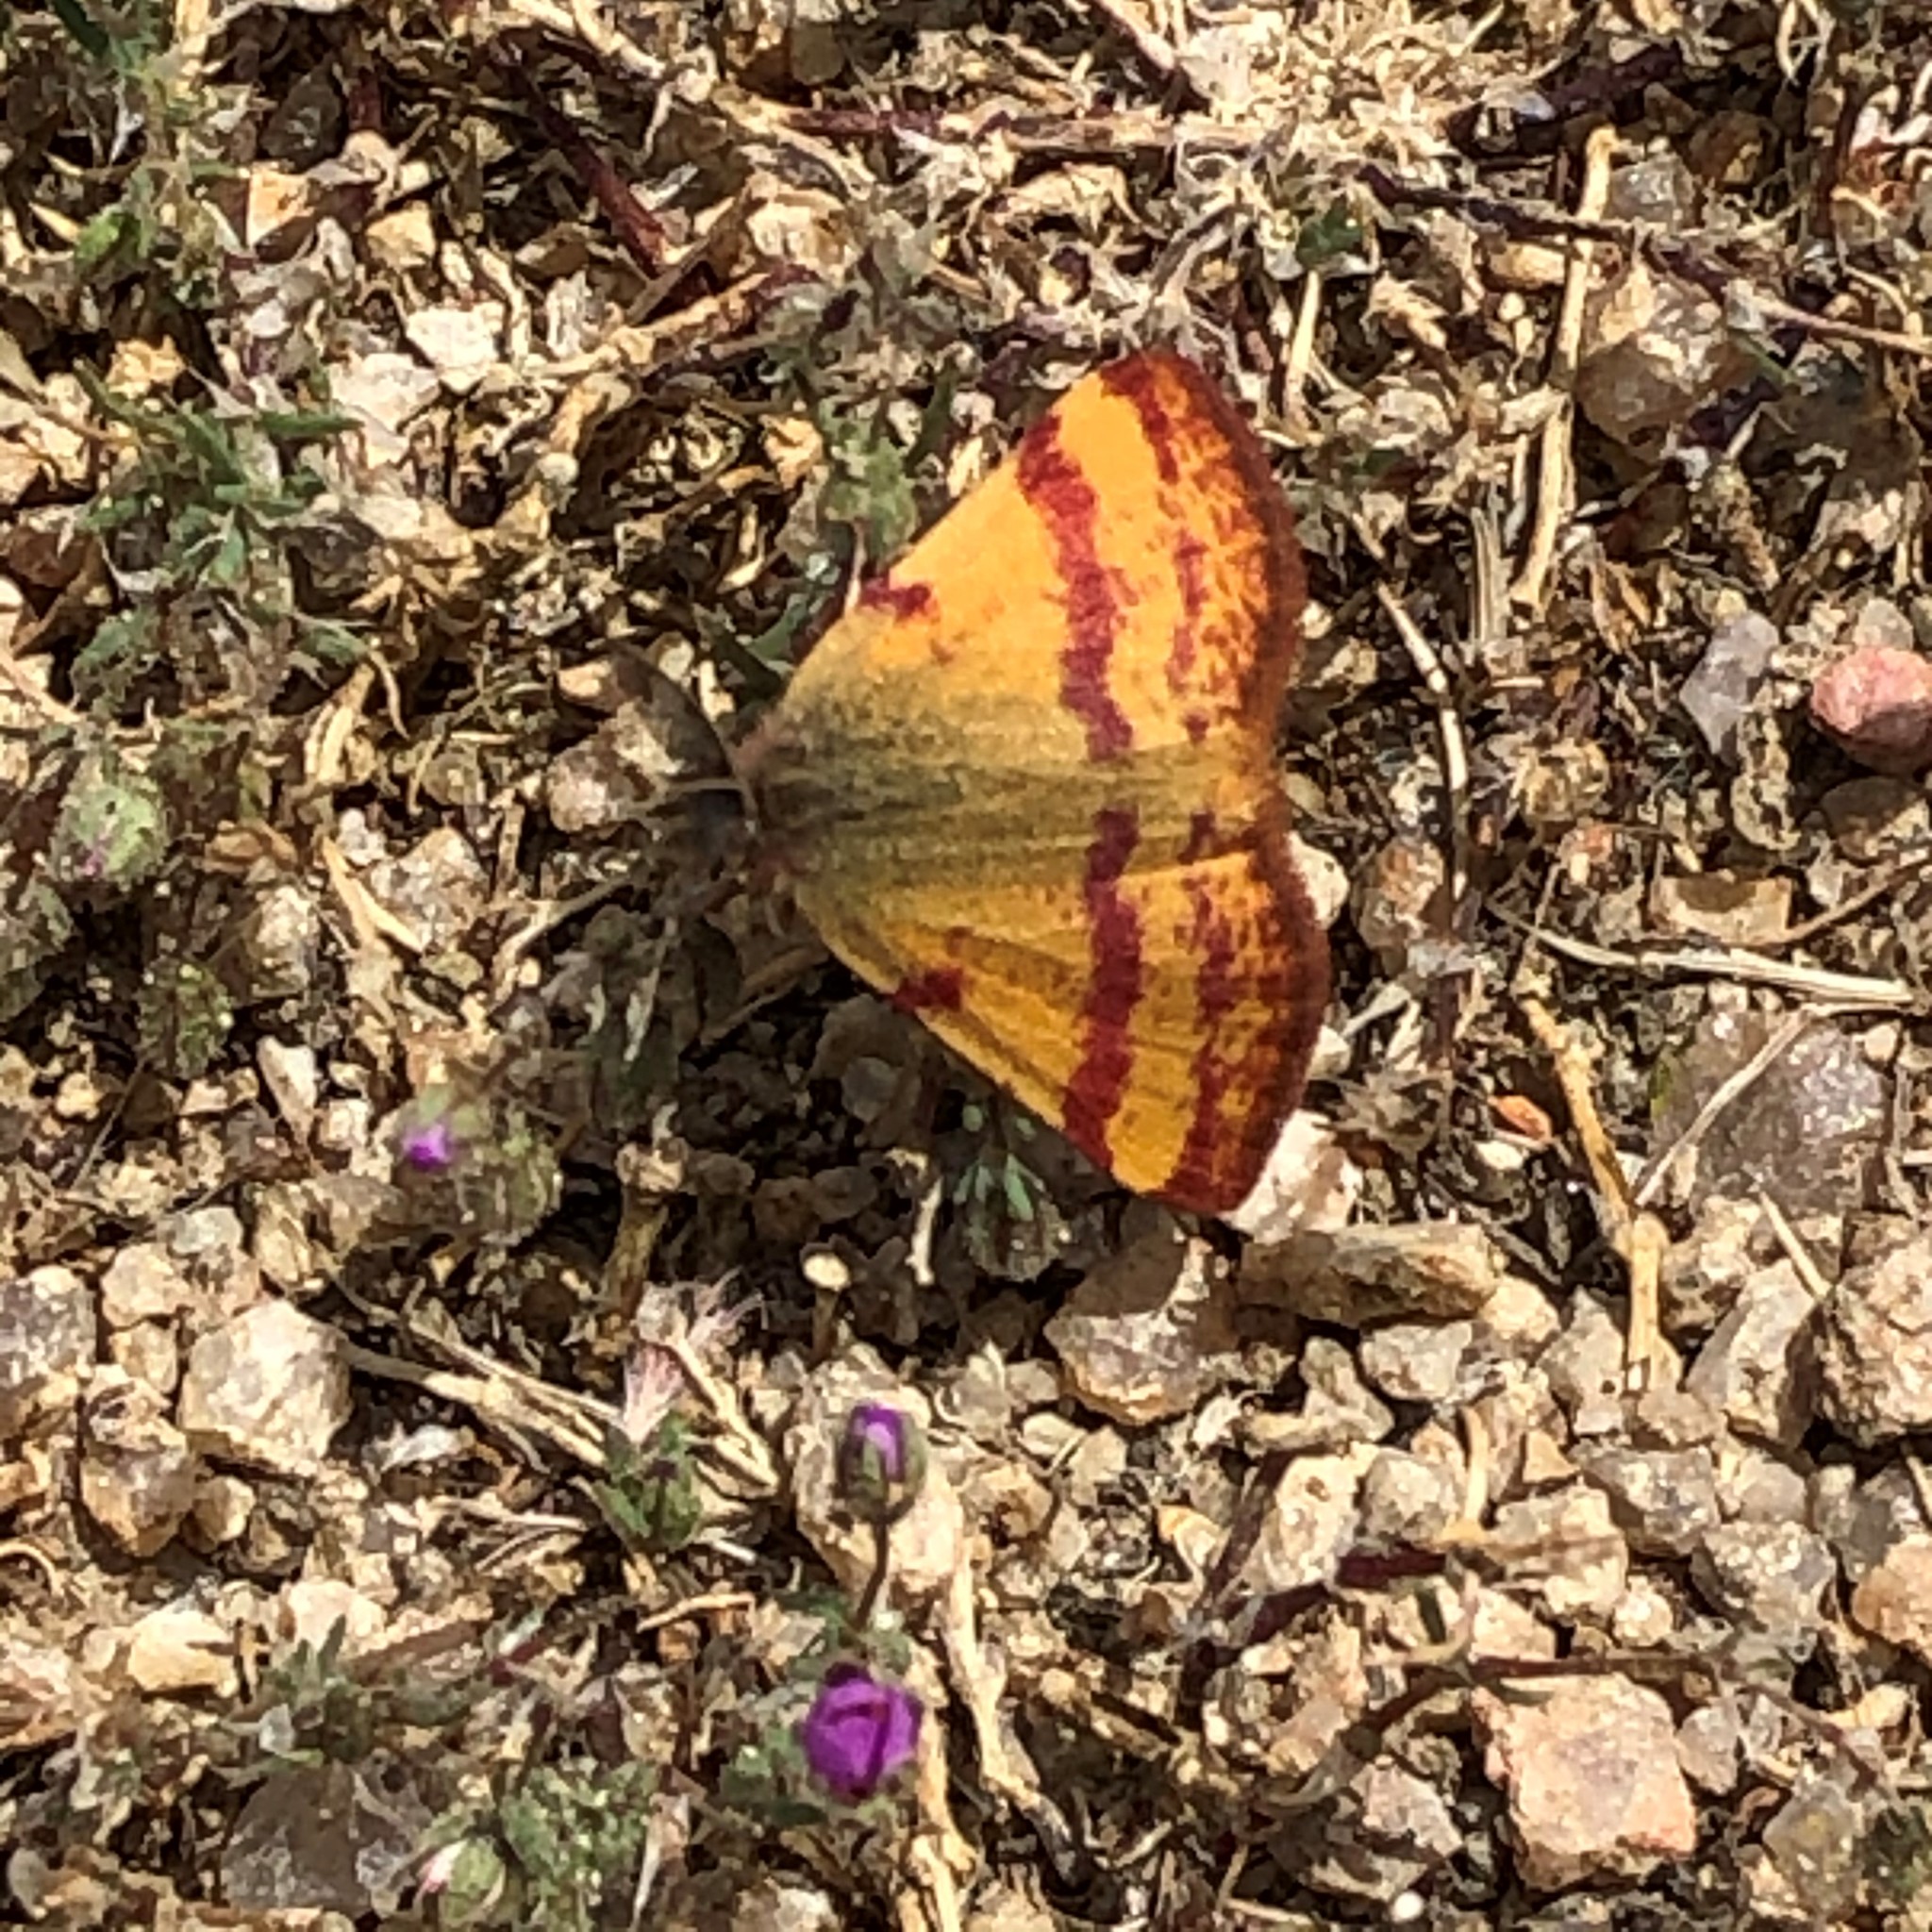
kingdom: Animalia
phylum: Arthropoda
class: Insecta
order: Lepidoptera
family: Geometridae
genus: Lythria
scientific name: Lythria cruentaria
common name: Purple-barred yellow
